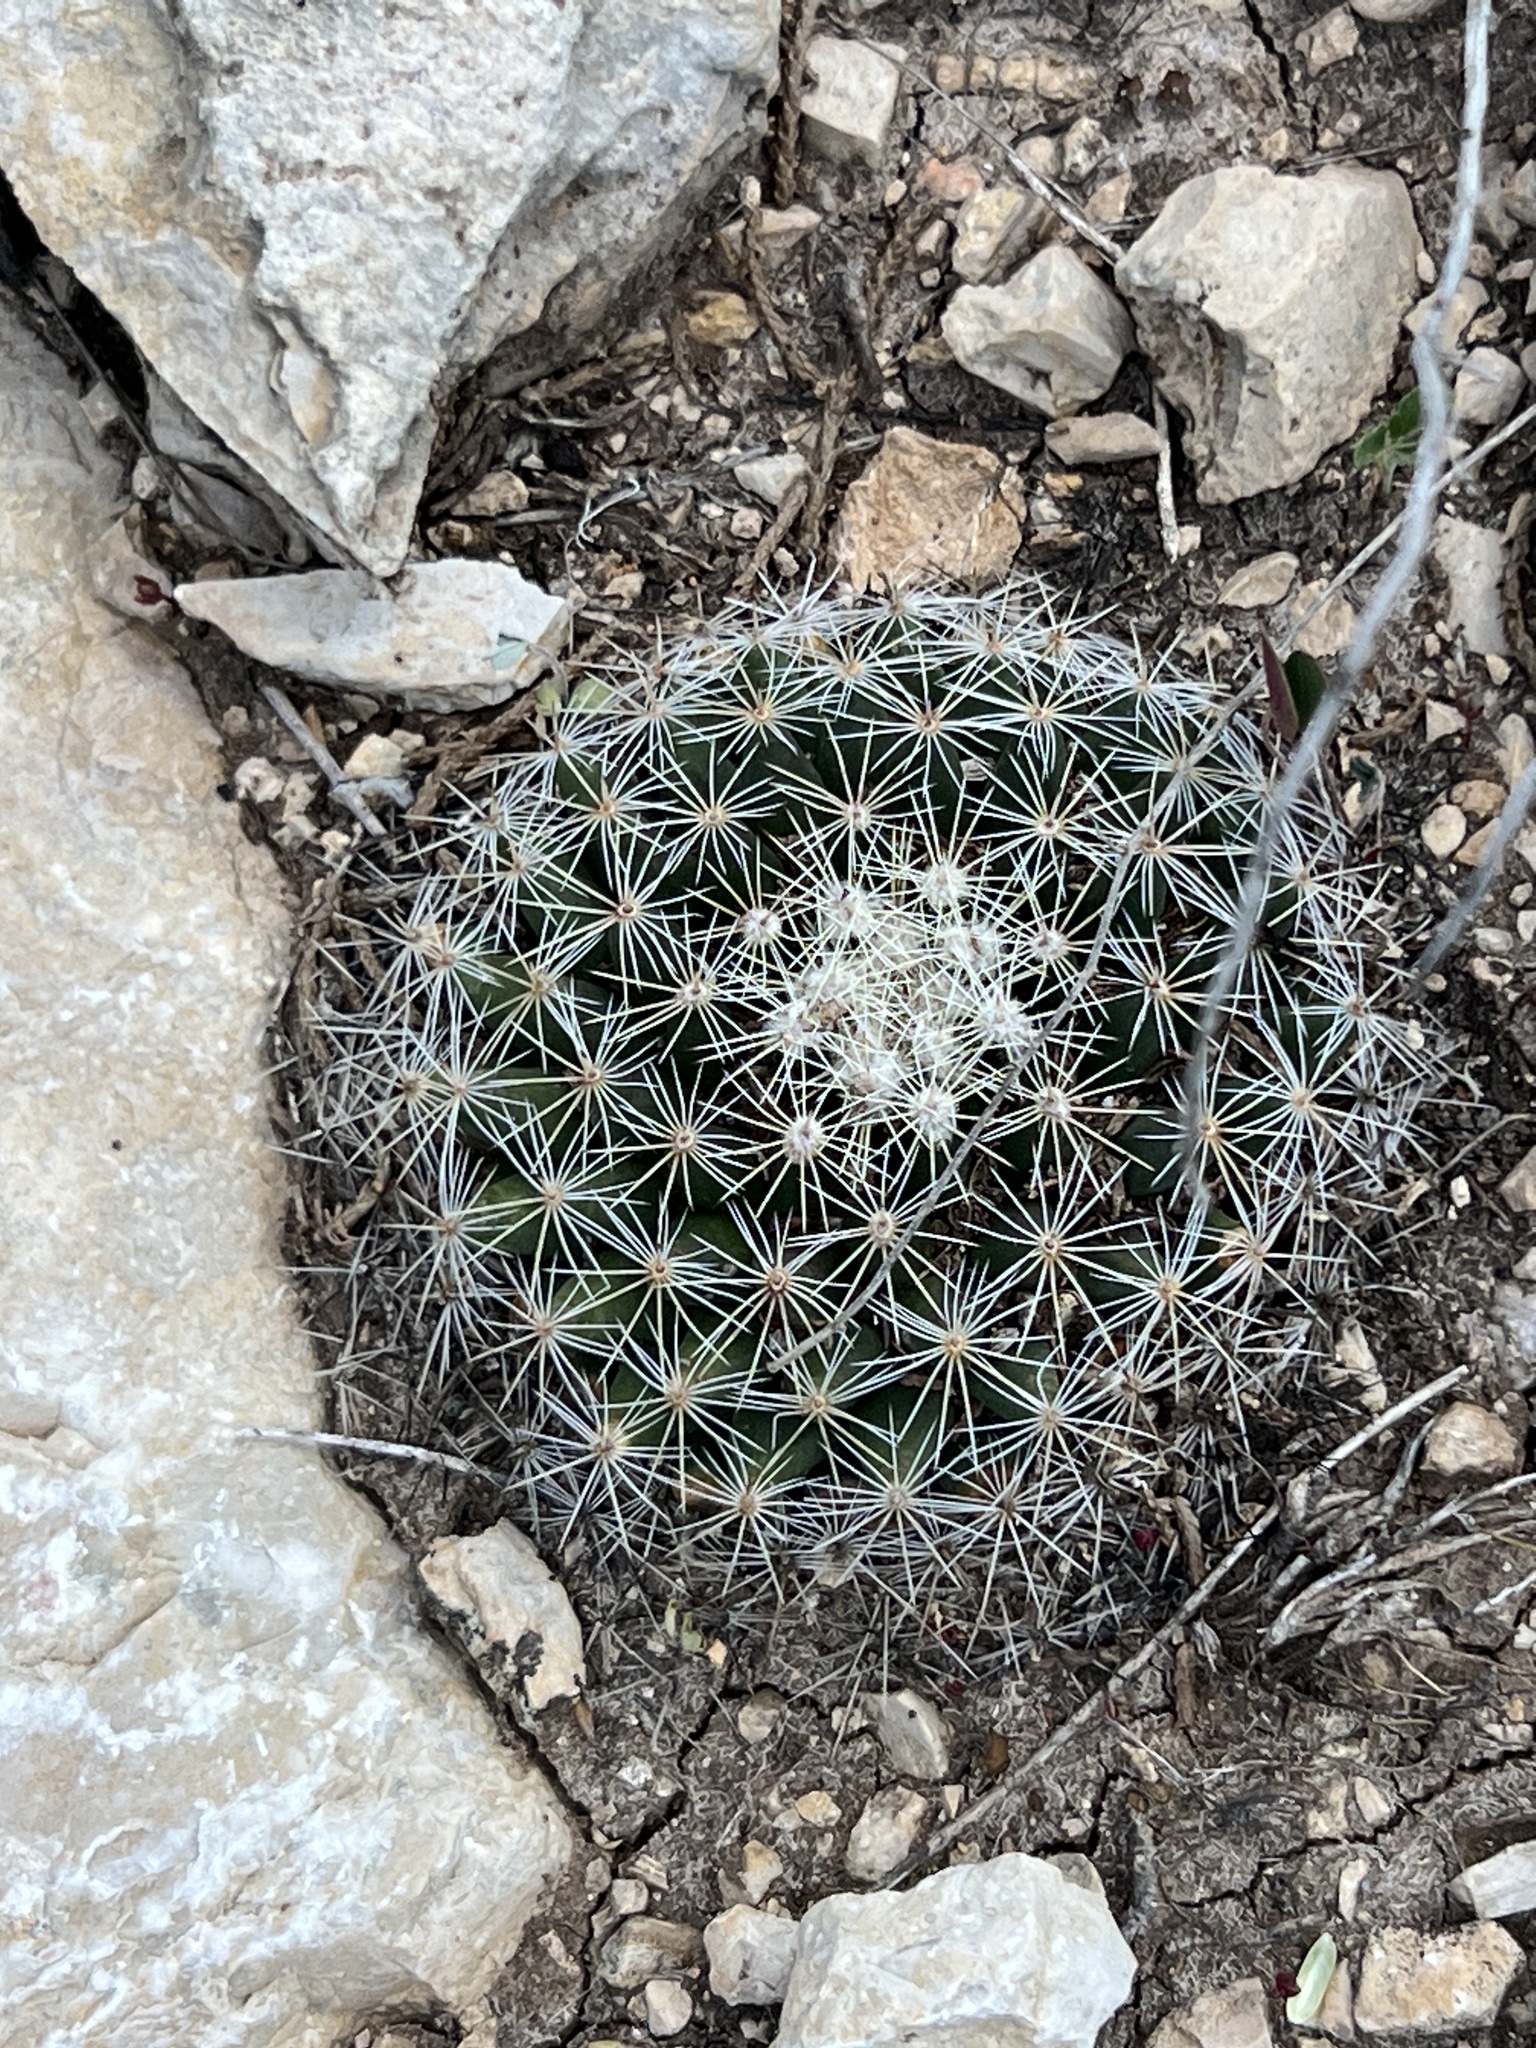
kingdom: Plantae
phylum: Tracheophyta
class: Magnoliopsida
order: Caryophyllales
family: Cactaceae
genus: Mammillaria
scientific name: Mammillaria heyderi
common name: Little nipple cactus
